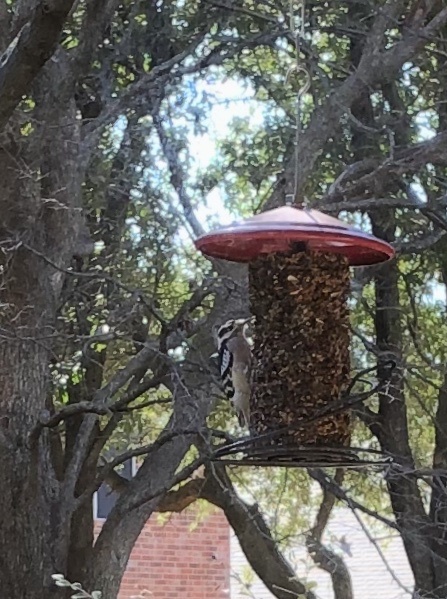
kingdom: Animalia
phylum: Chordata
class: Aves
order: Piciformes
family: Picidae
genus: Dryobates
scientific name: Dryobates pubescens
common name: Downy woodpecker
